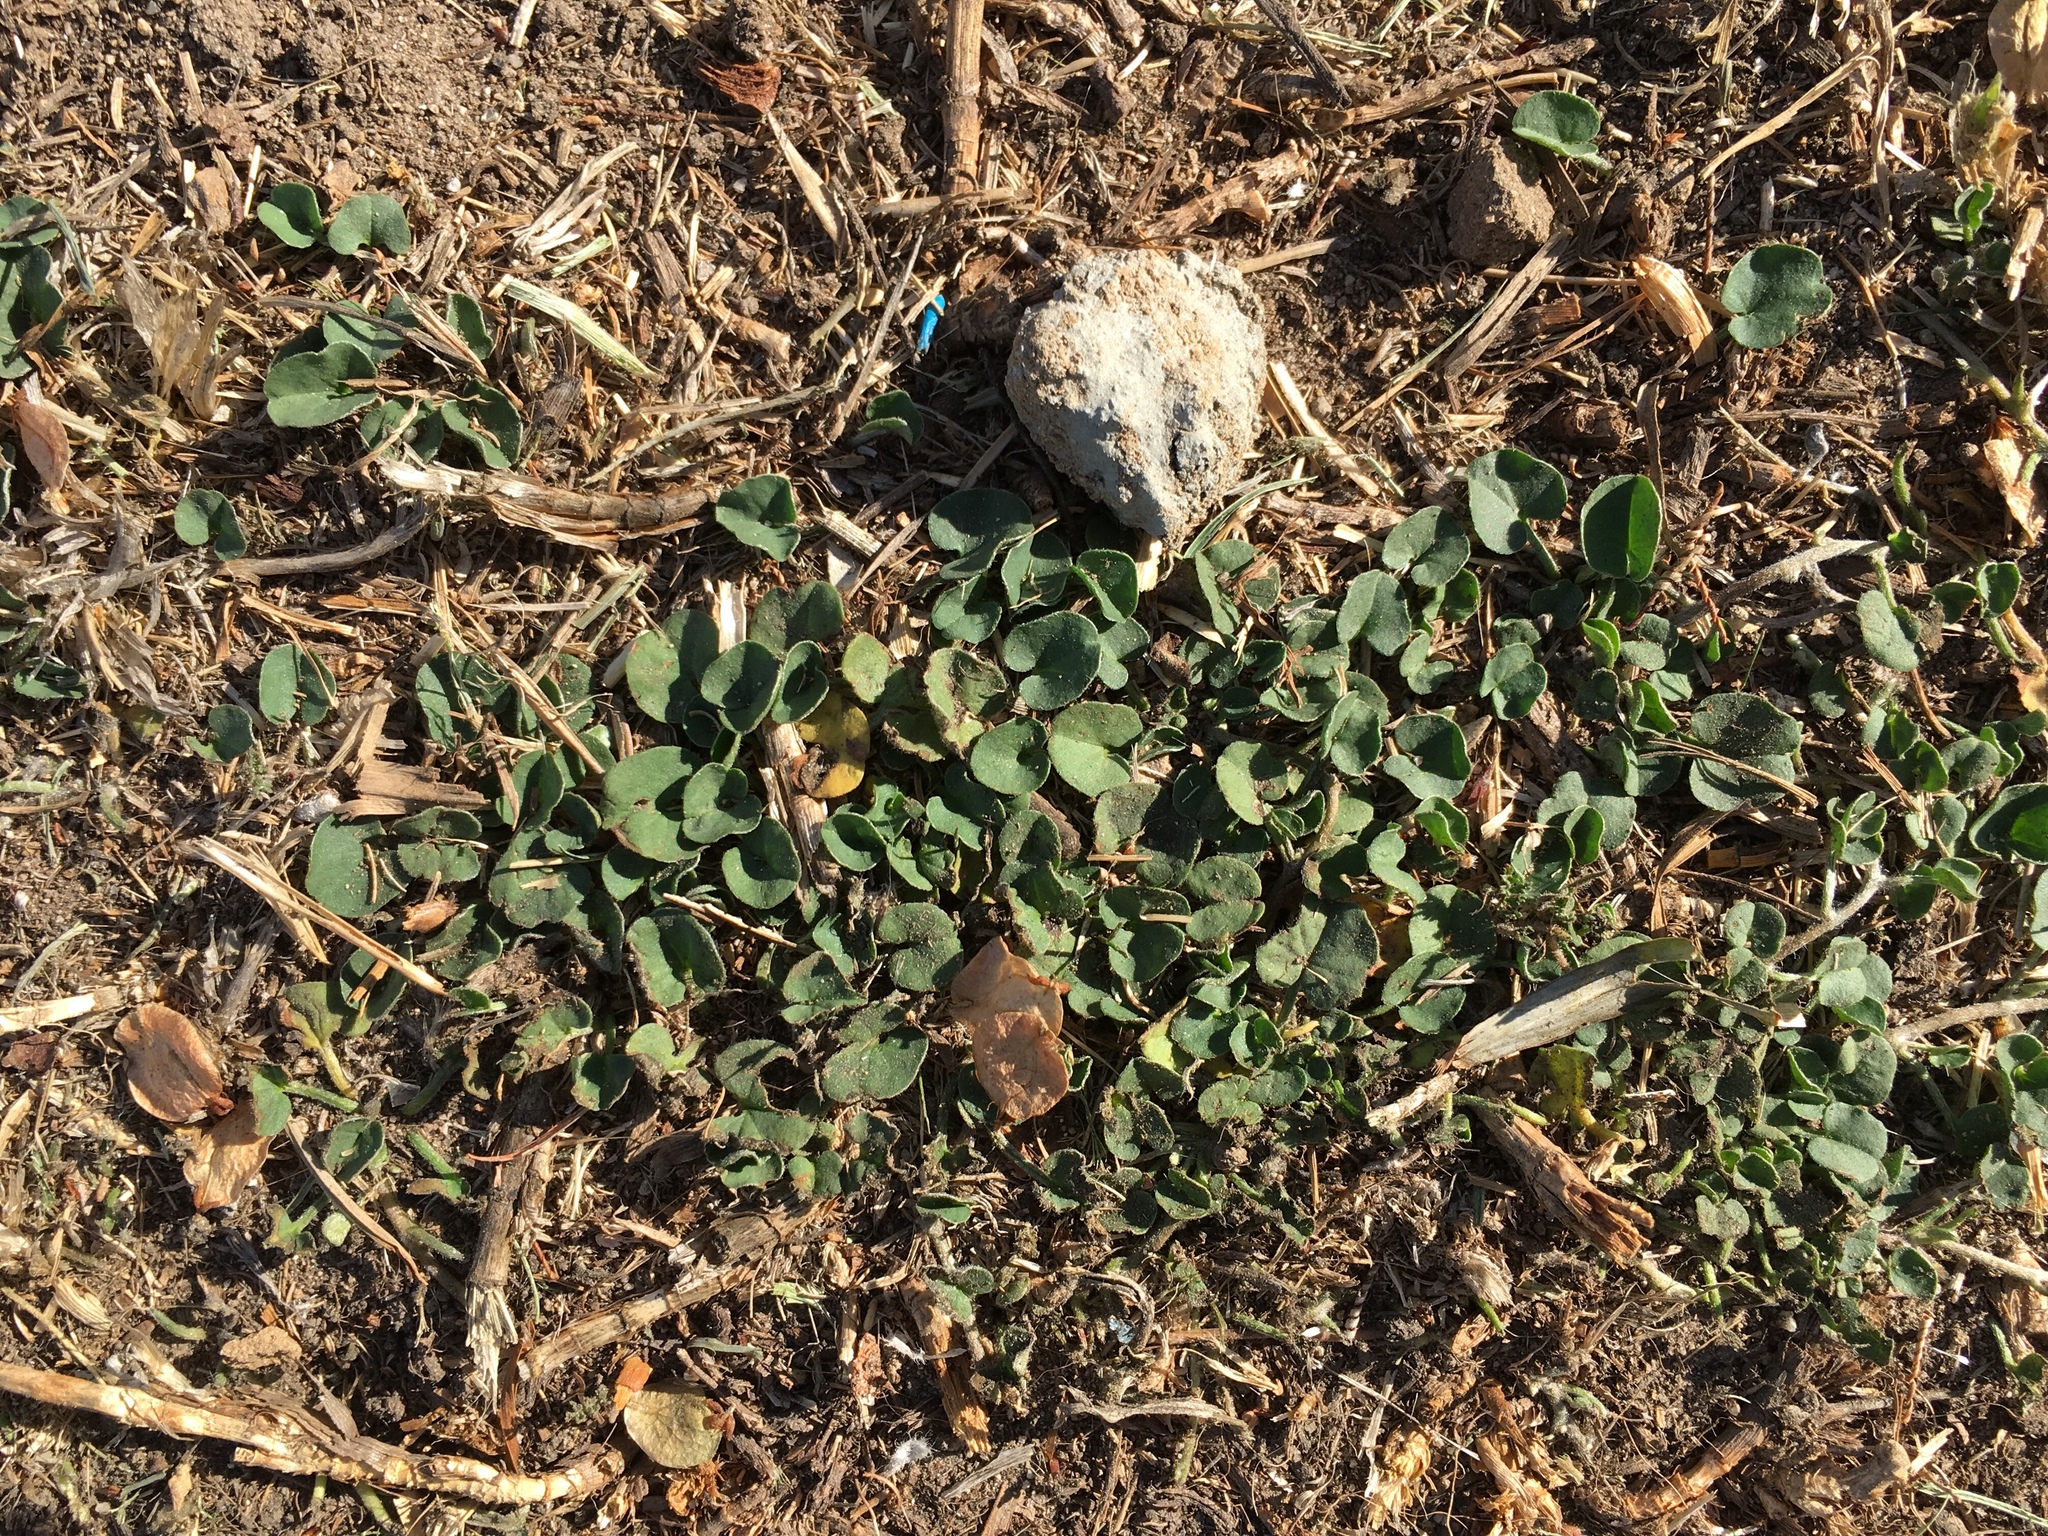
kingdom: Plantae
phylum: Tracheophyta
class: Magnoliopsida
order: Solanales
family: Convolvulaceae
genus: Dichondra
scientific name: Dichondra micrantha
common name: Kidneyweed
